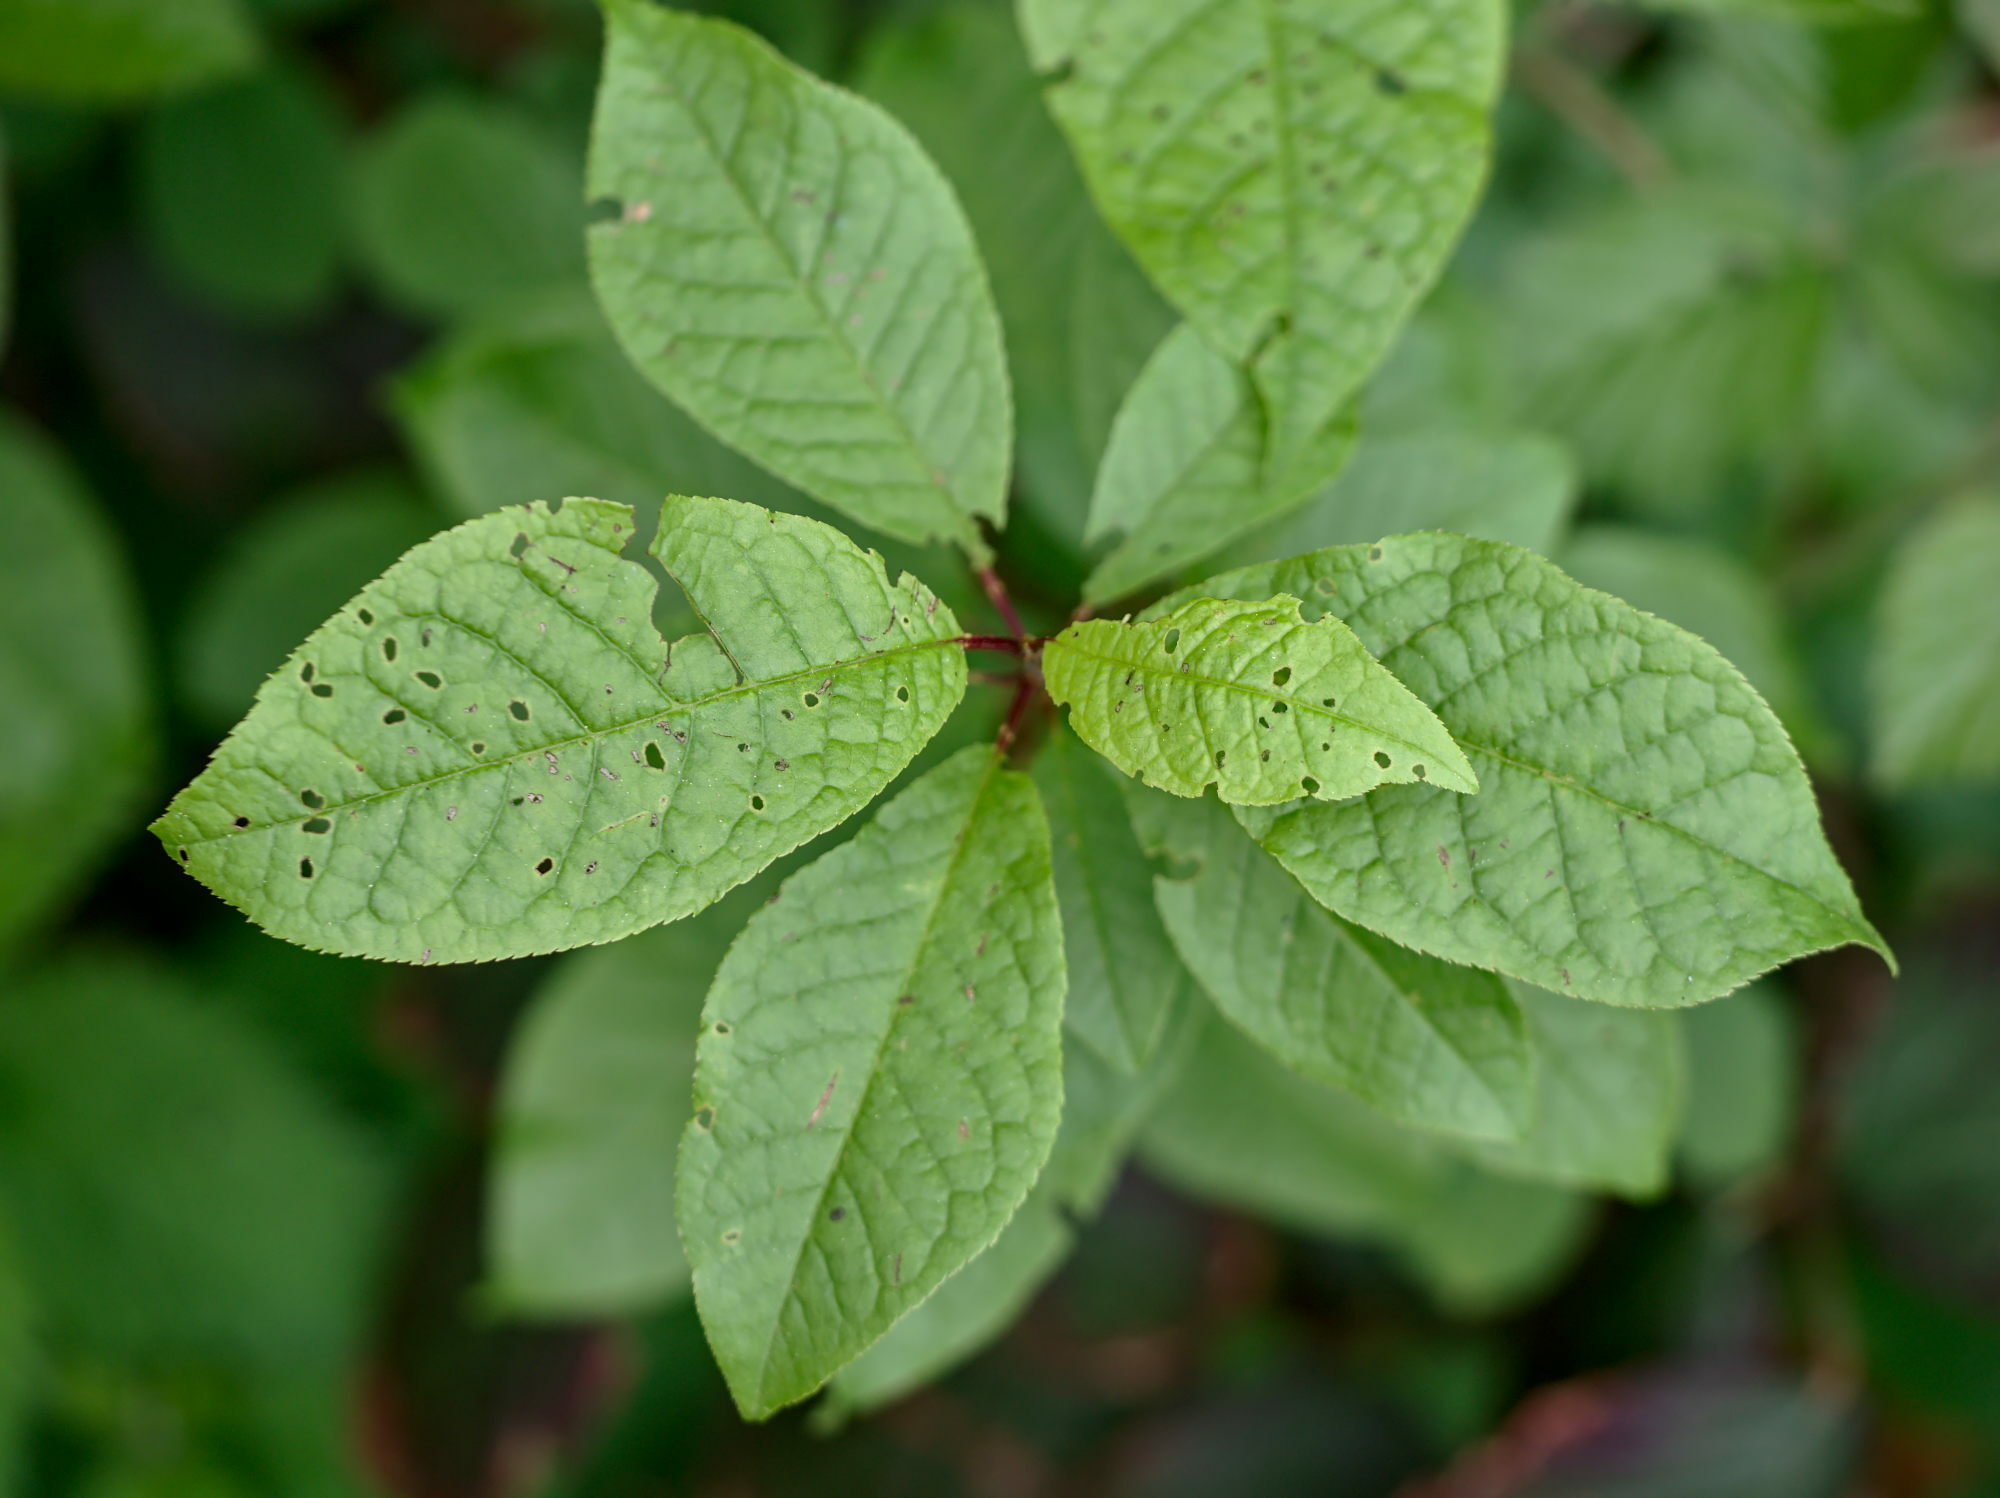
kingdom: Plantae
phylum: Tracheophyta
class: Magnoliopsida
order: Rosales
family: Rosaceae
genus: Prunus
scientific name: Prunus padus
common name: Bird cherry
